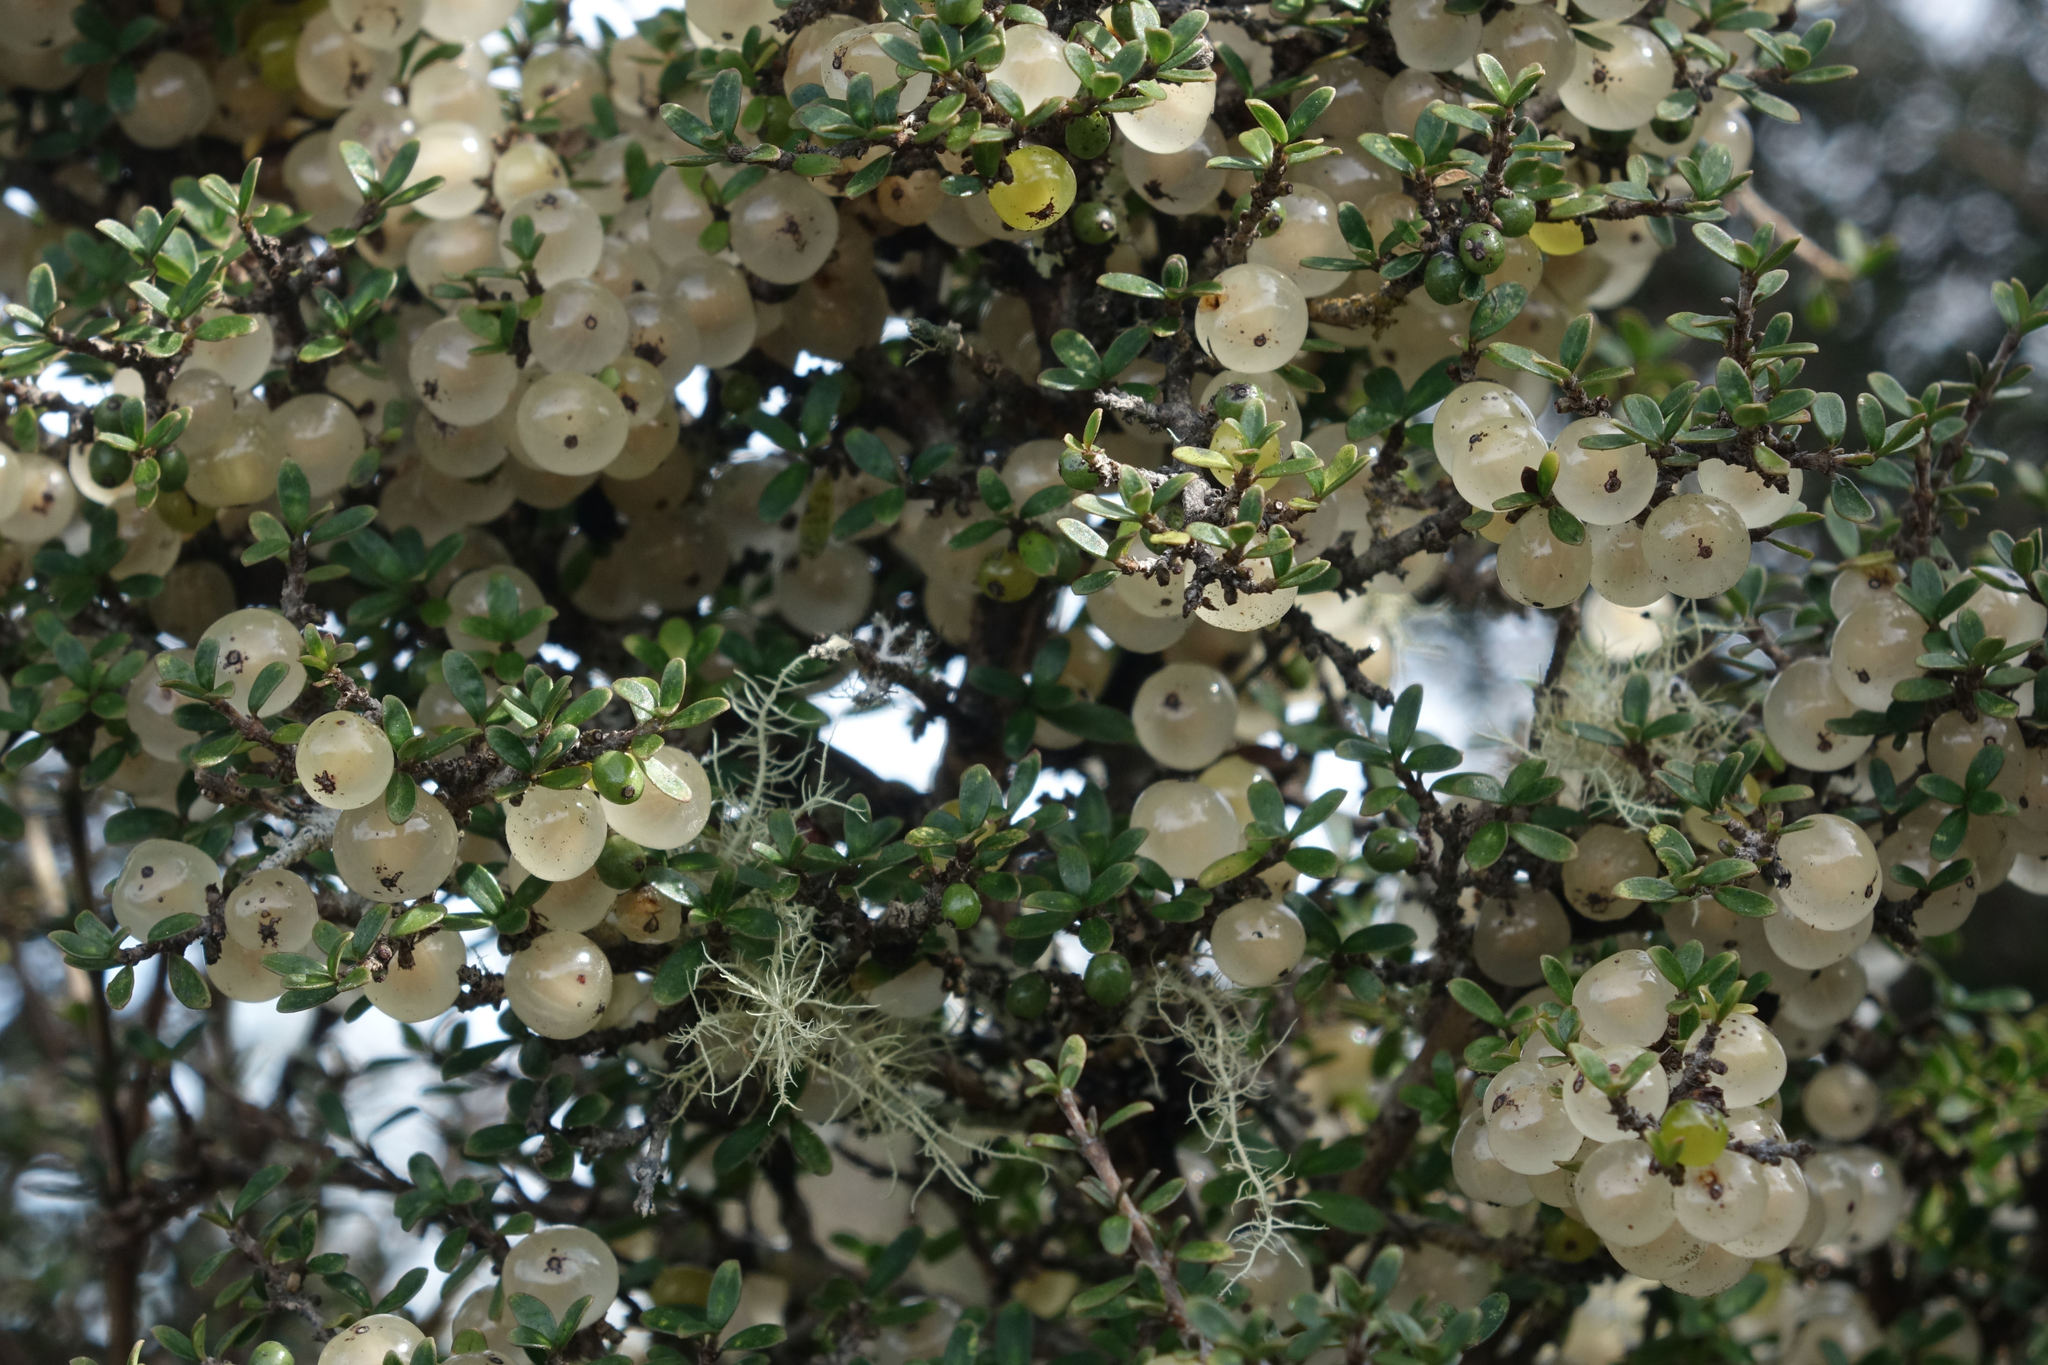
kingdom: Plantae
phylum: Tracheophyta
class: Magnoliopsida
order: Gentianales
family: Rubiaceae
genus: Coprosma
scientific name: Coprosma dumosa
